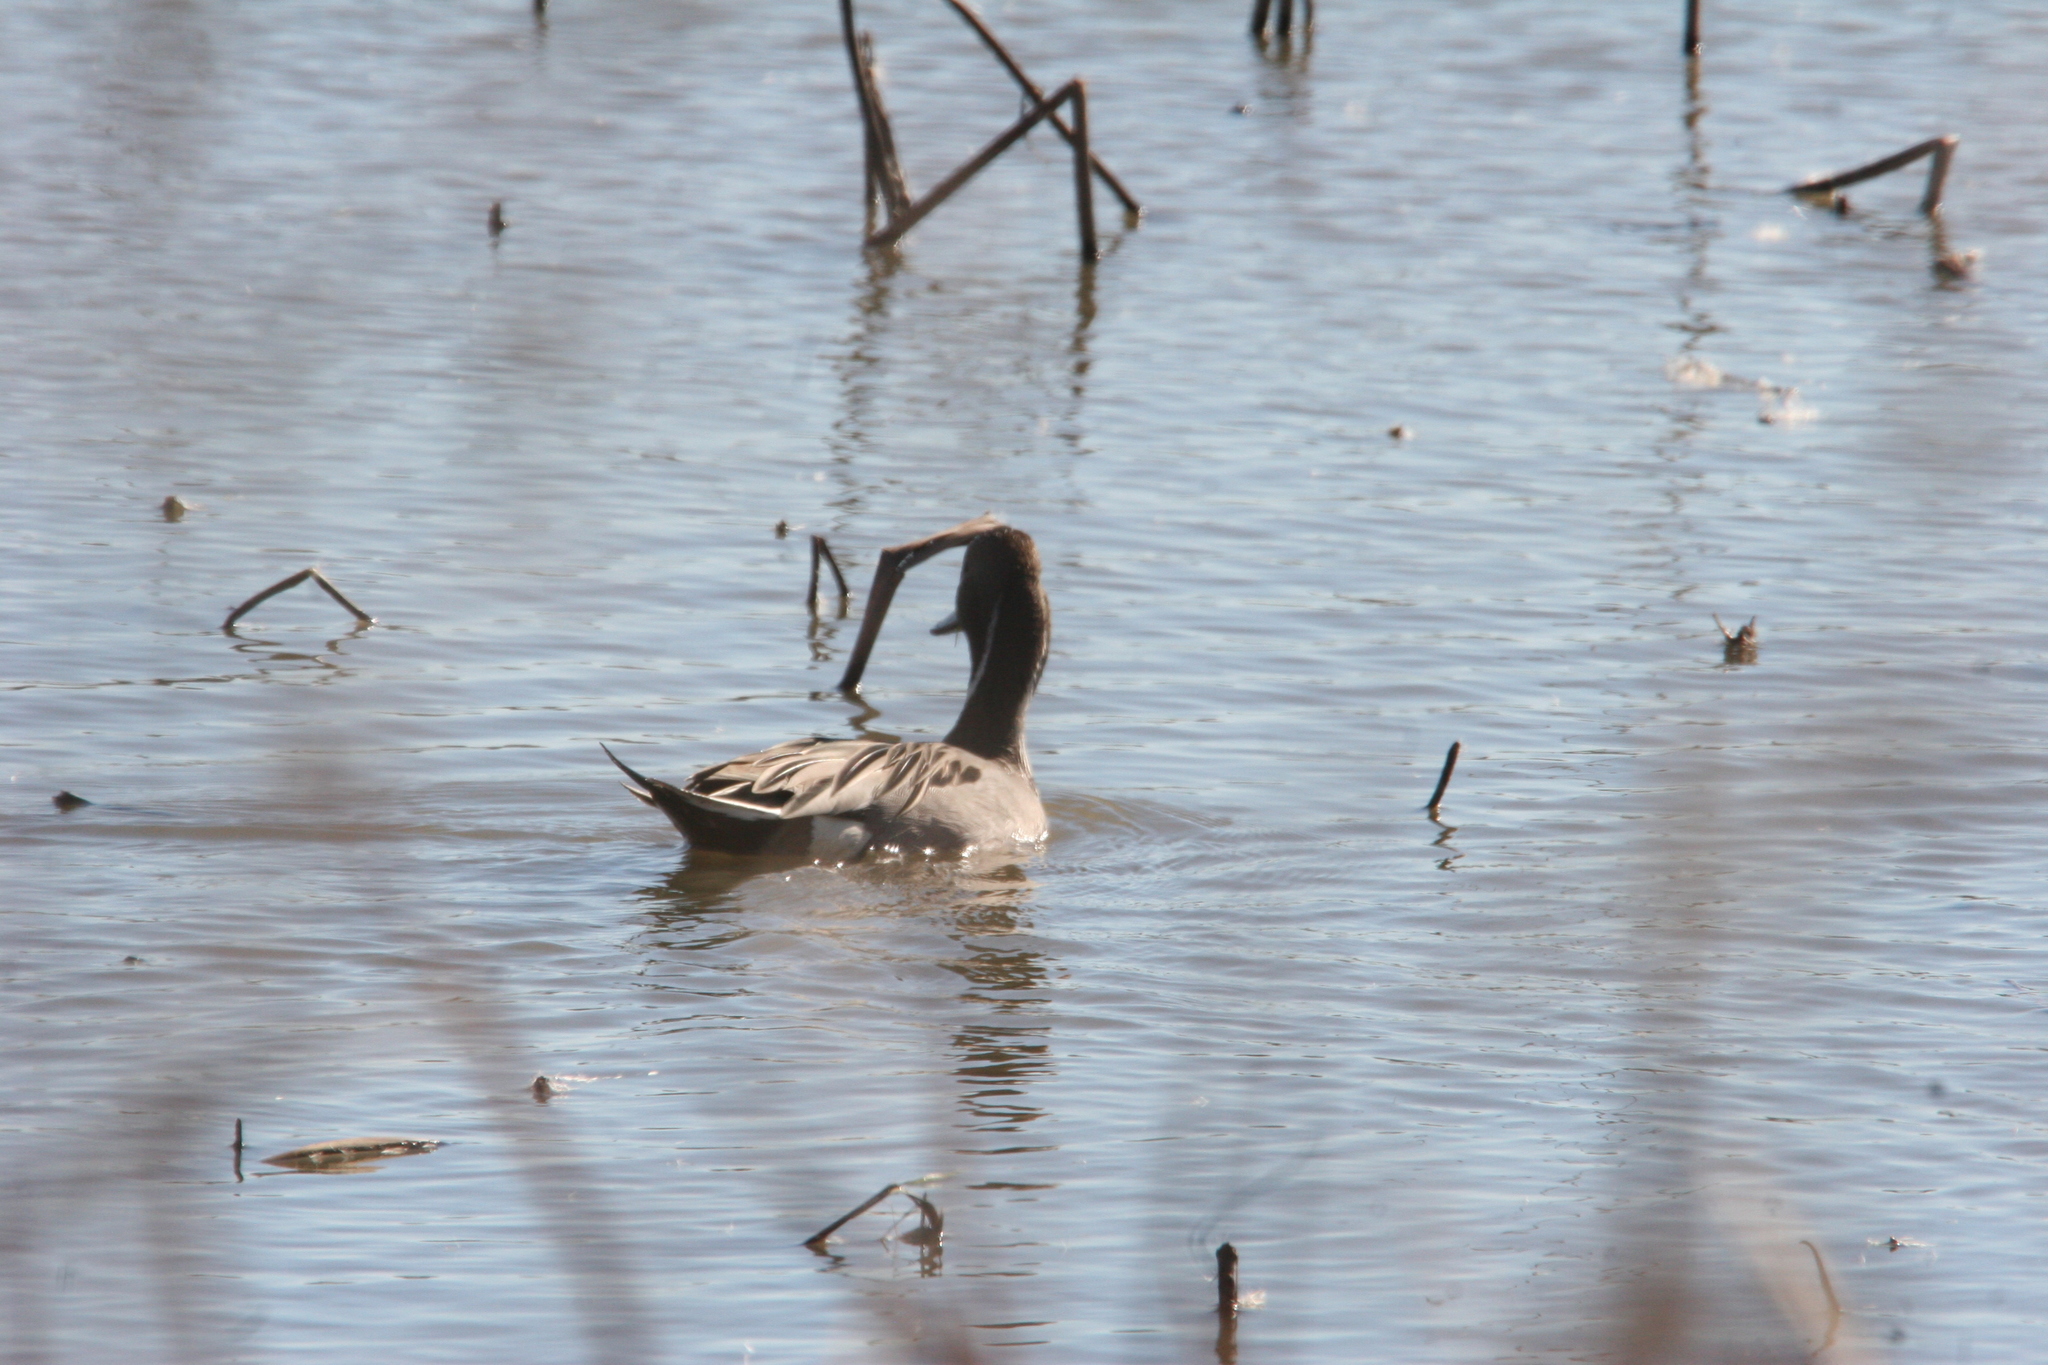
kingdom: Animalia
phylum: Chordata
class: Aves
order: Anseriformes
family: Anatidae
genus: Anas
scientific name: Anas acuta
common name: Northern pintail
